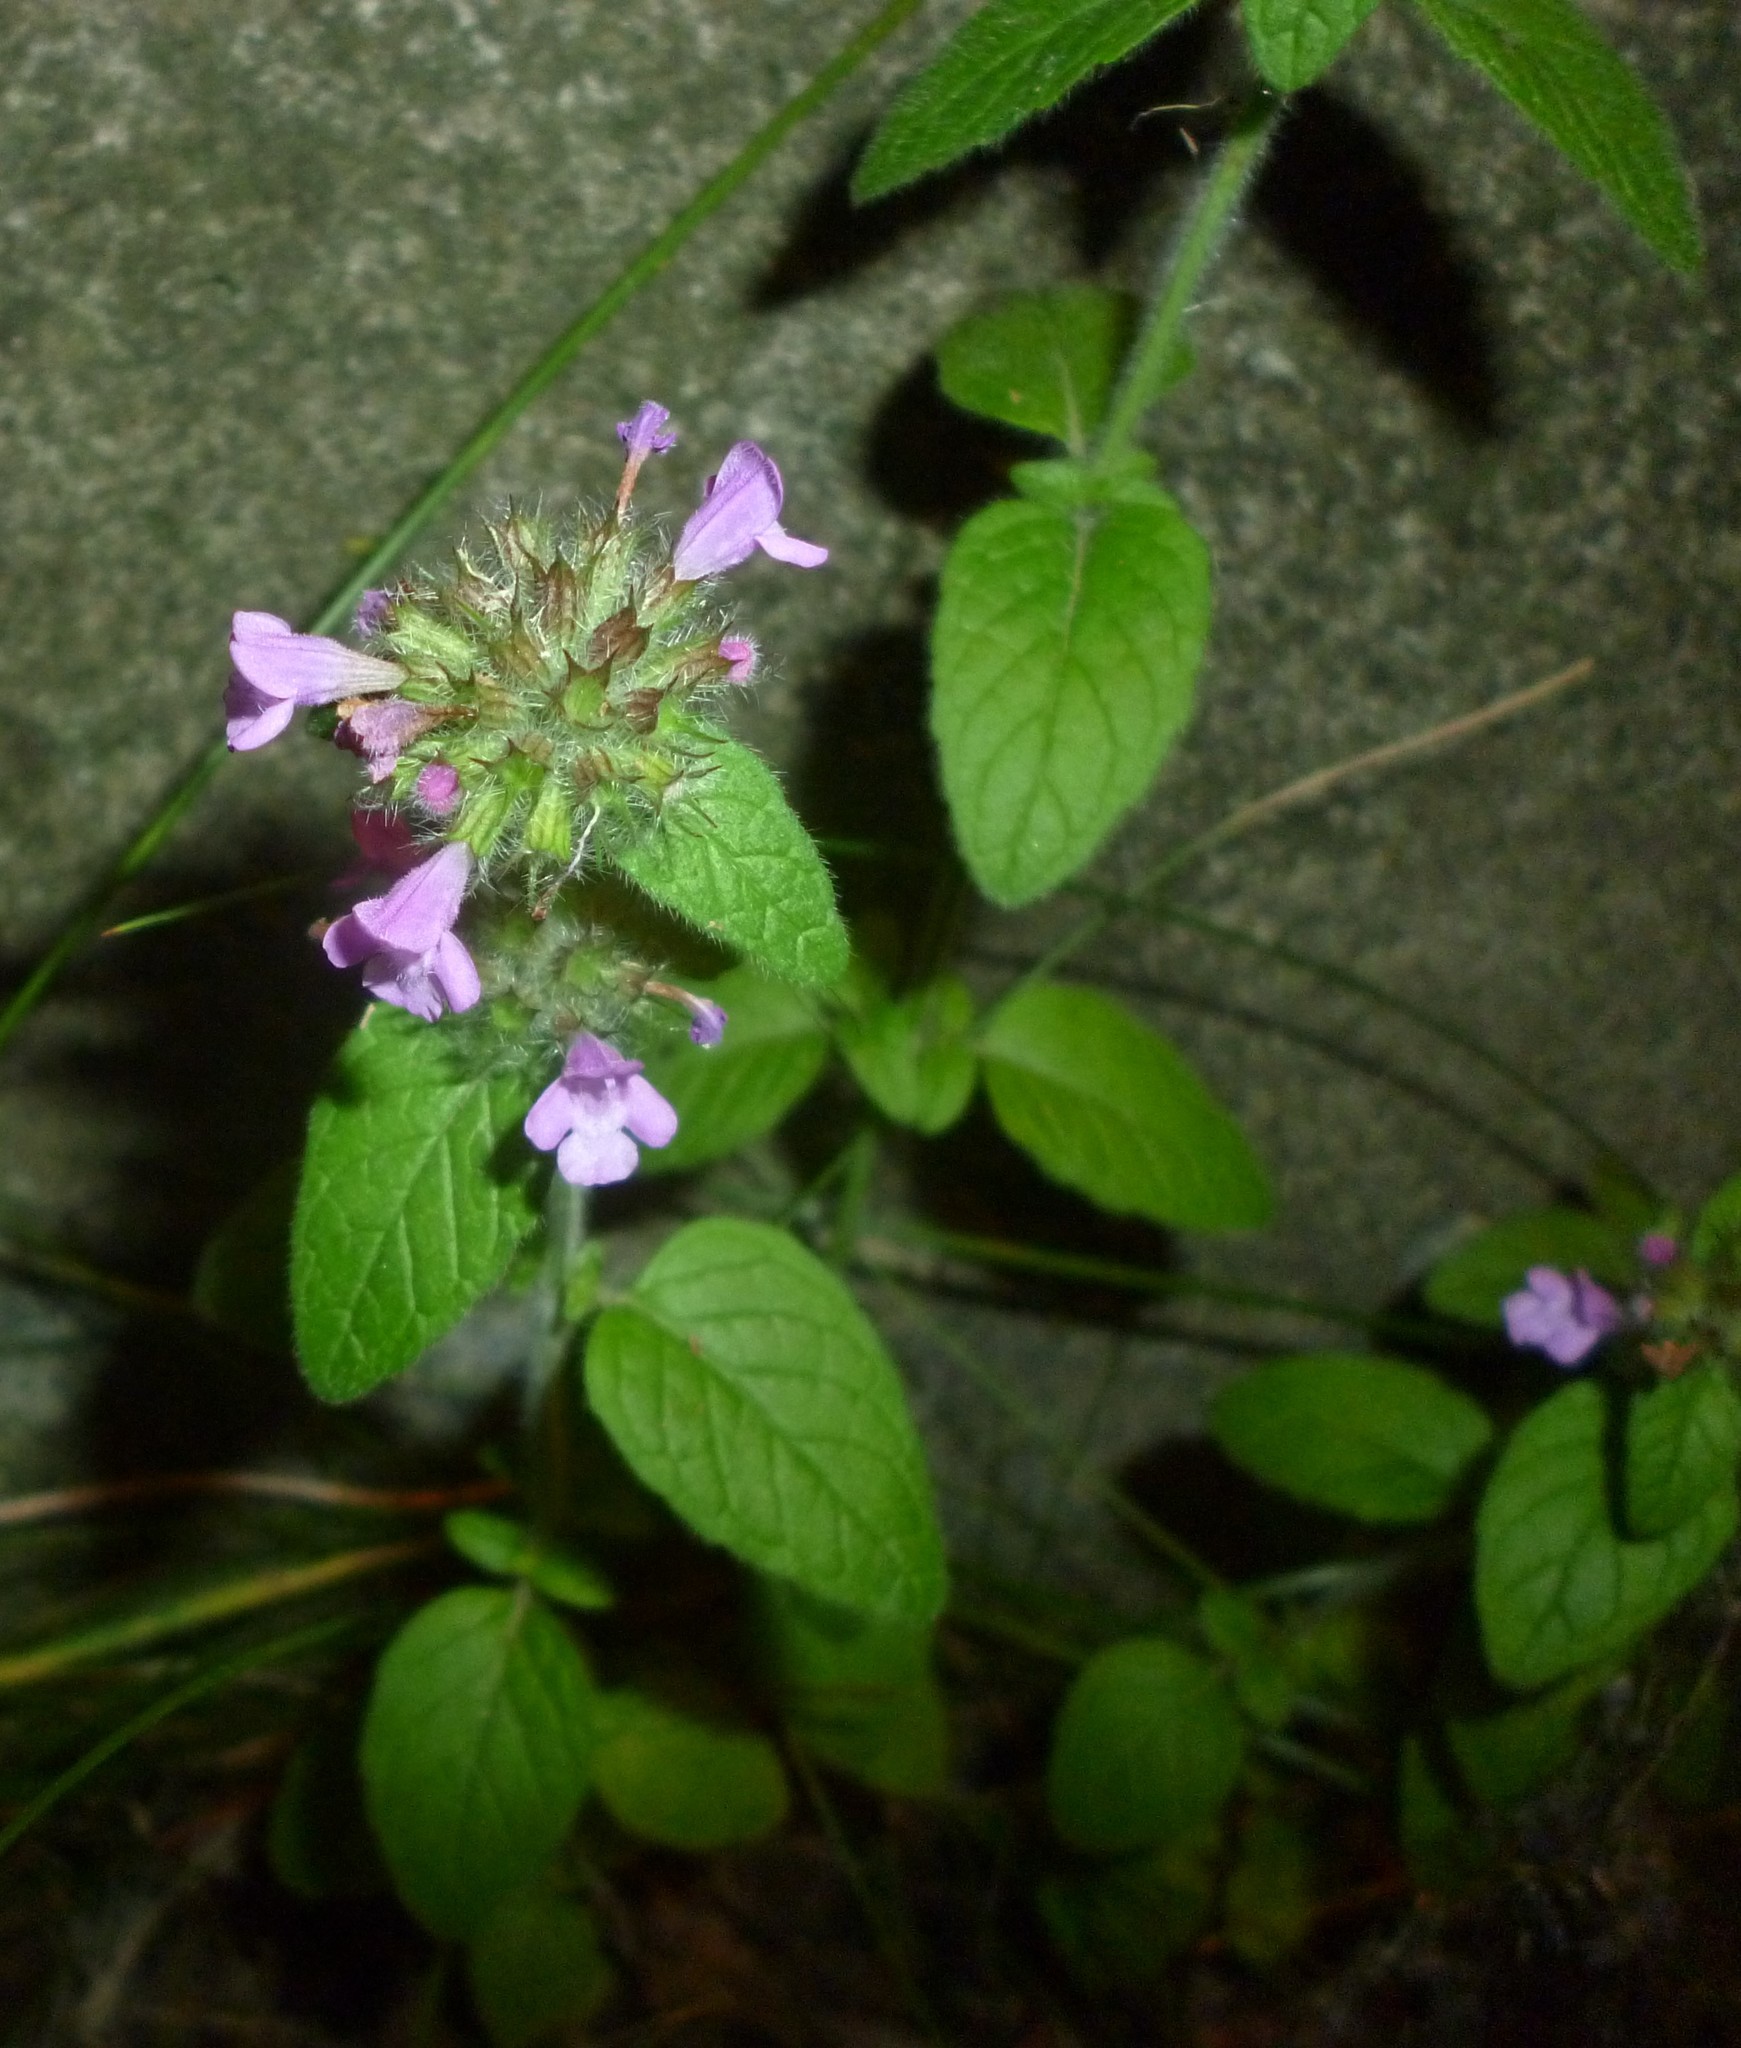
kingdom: Plantae
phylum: Tracheophyta
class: Magnoliopsida
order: Lamiales
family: Lamiaceae
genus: Clinopodium
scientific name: Clinopodium vulgare
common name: Wild basil
